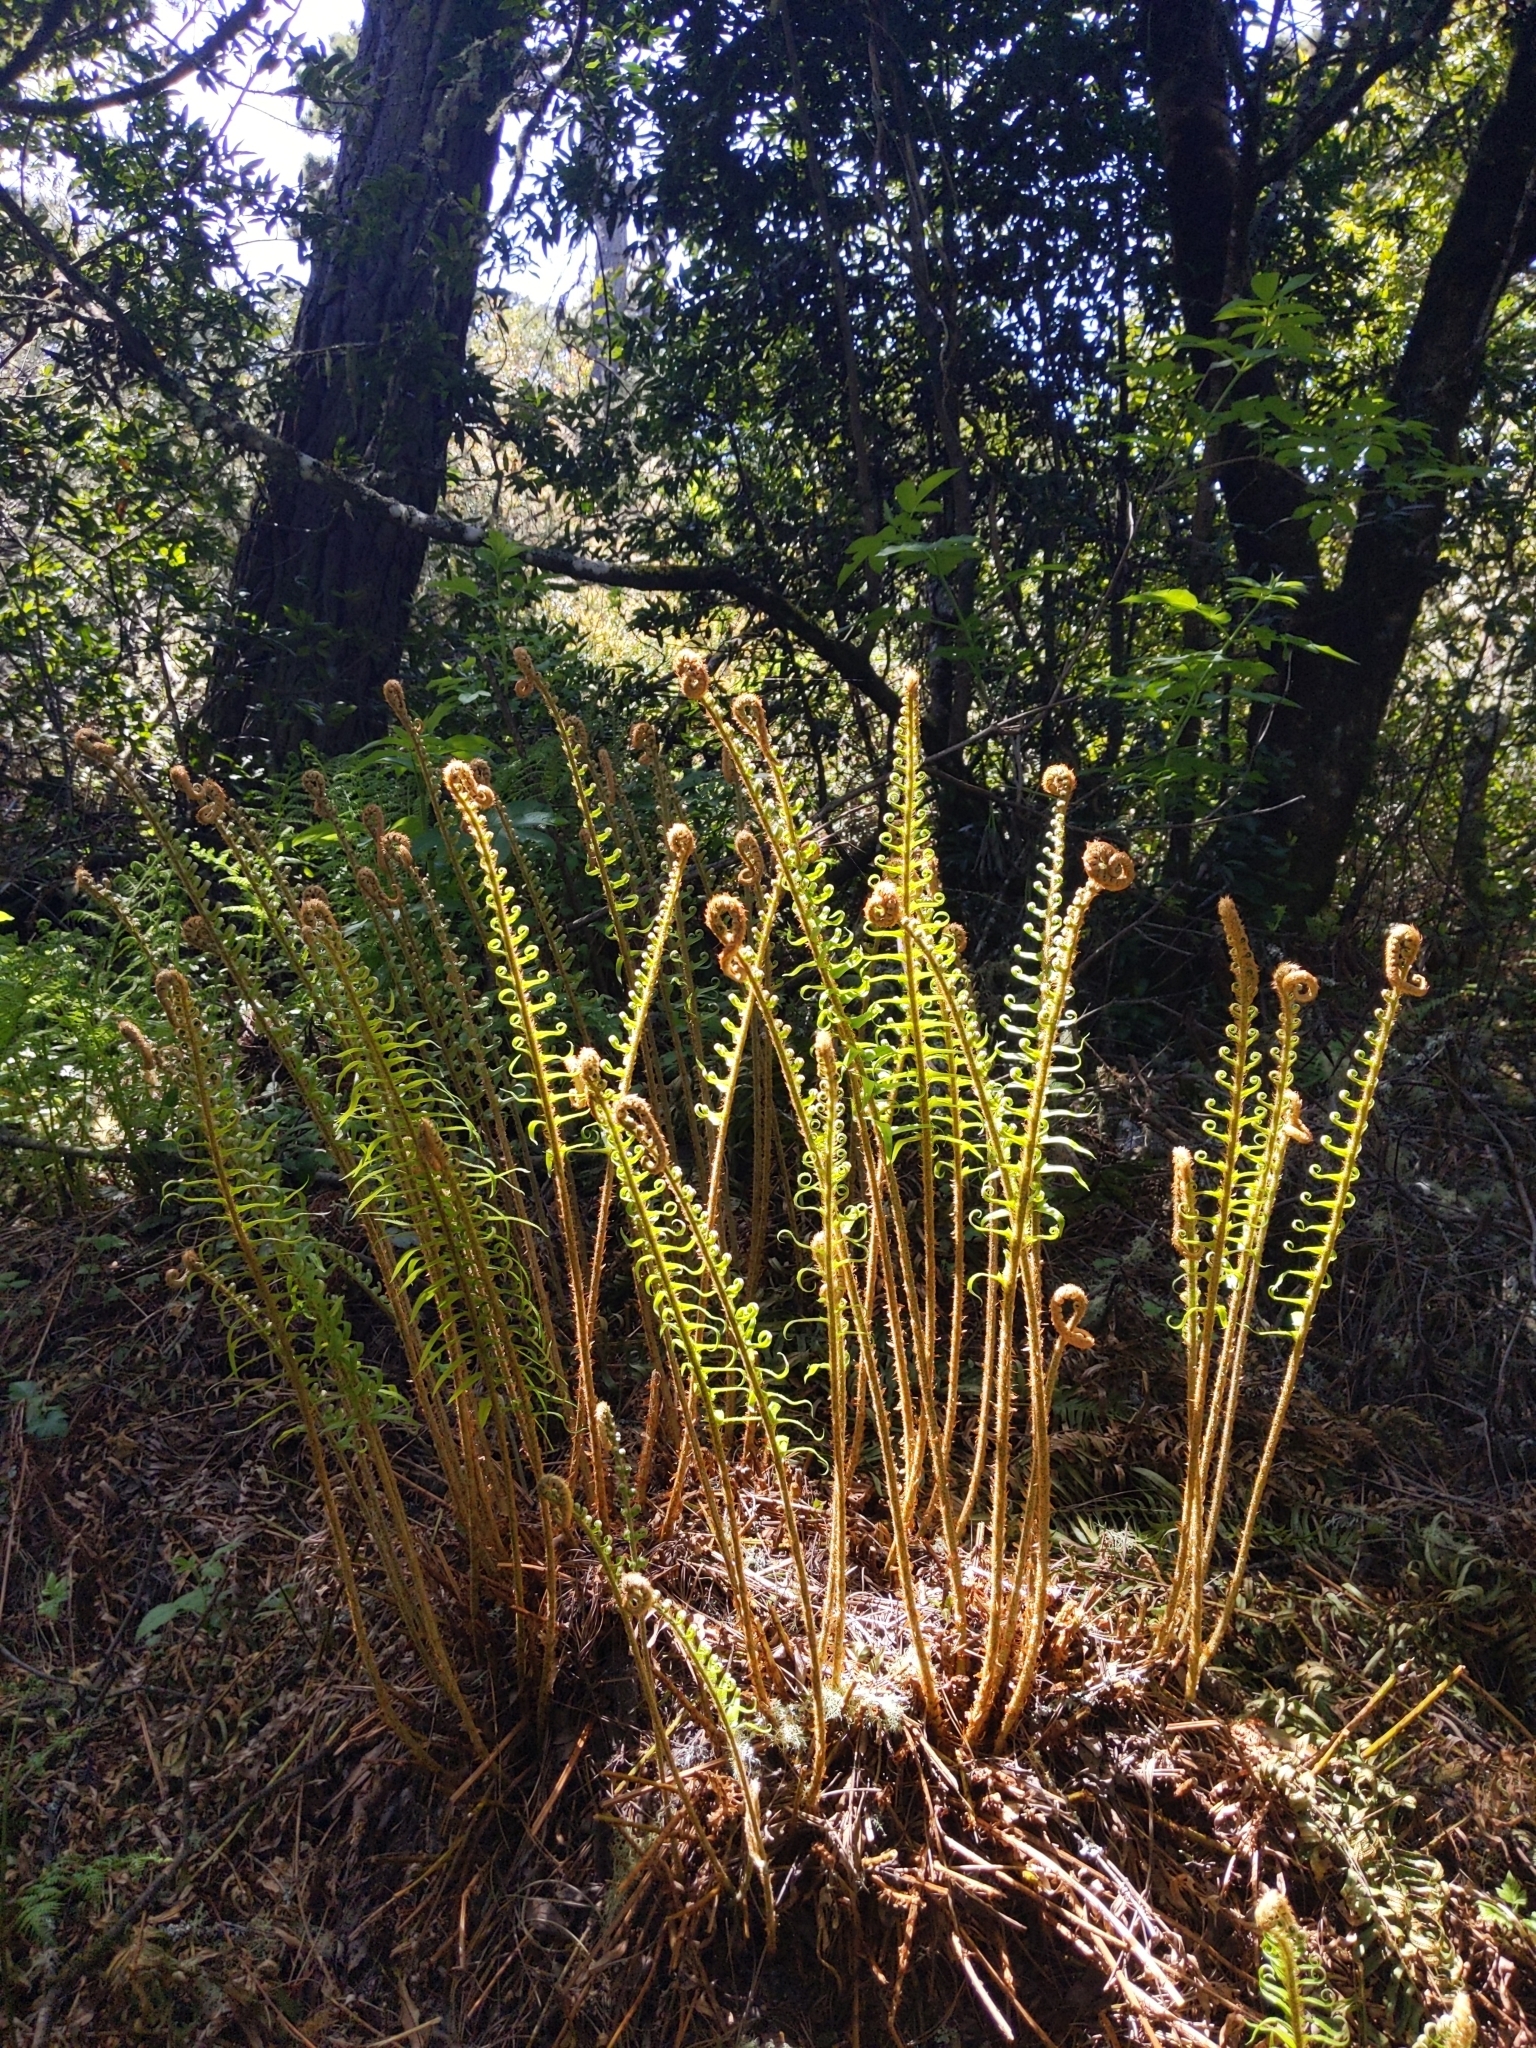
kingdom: Plantae
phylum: Tracheophyta
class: Polypodiopsida
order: Polypodiales
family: Dryopteridaceae
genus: Polystichum
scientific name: Polystichum munitum
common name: Western sword-fern
